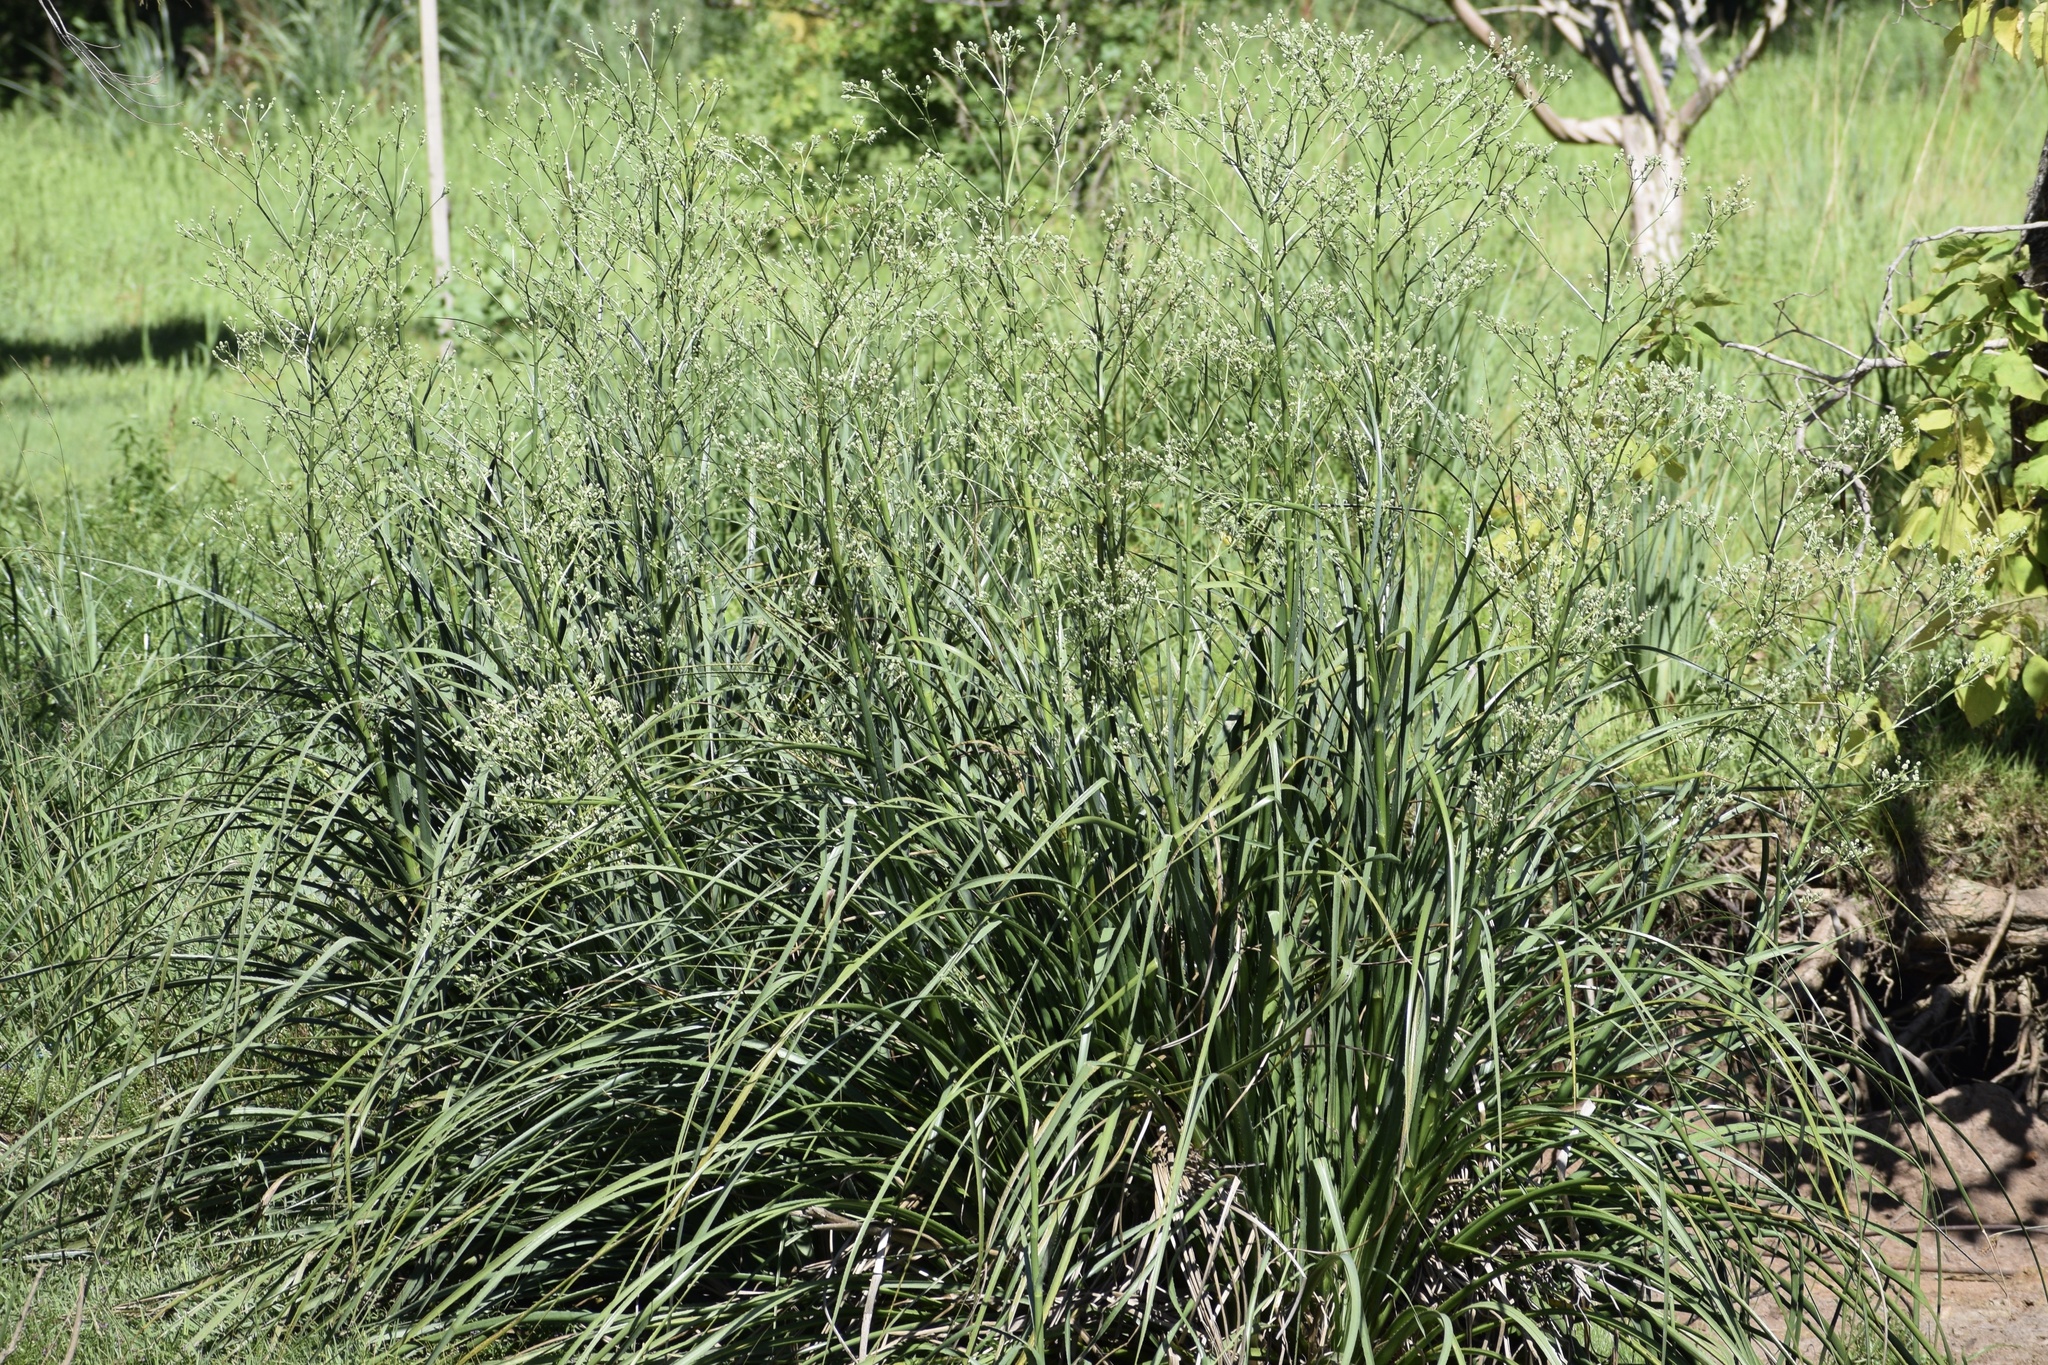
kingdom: Plantae
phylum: Tracheophyta
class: Magnoliopsida
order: Apiales
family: Apiaceae
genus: Eryngium
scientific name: Eryngium pandanifolium
